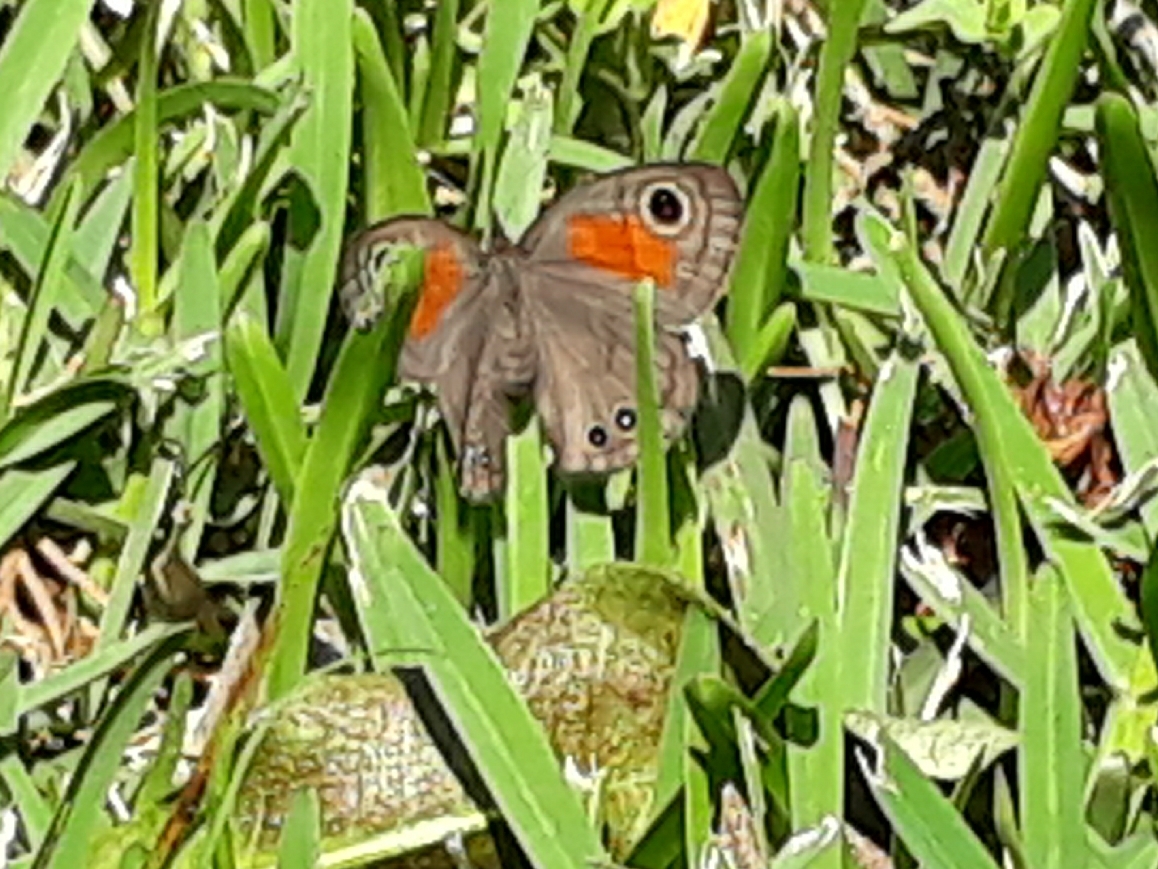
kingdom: Animalia
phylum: Arthropoda
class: Insecta
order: Lepidoptera
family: Nymphalidae
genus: Cassionympha
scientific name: Cassionympha cassius
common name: Rainforest brown
